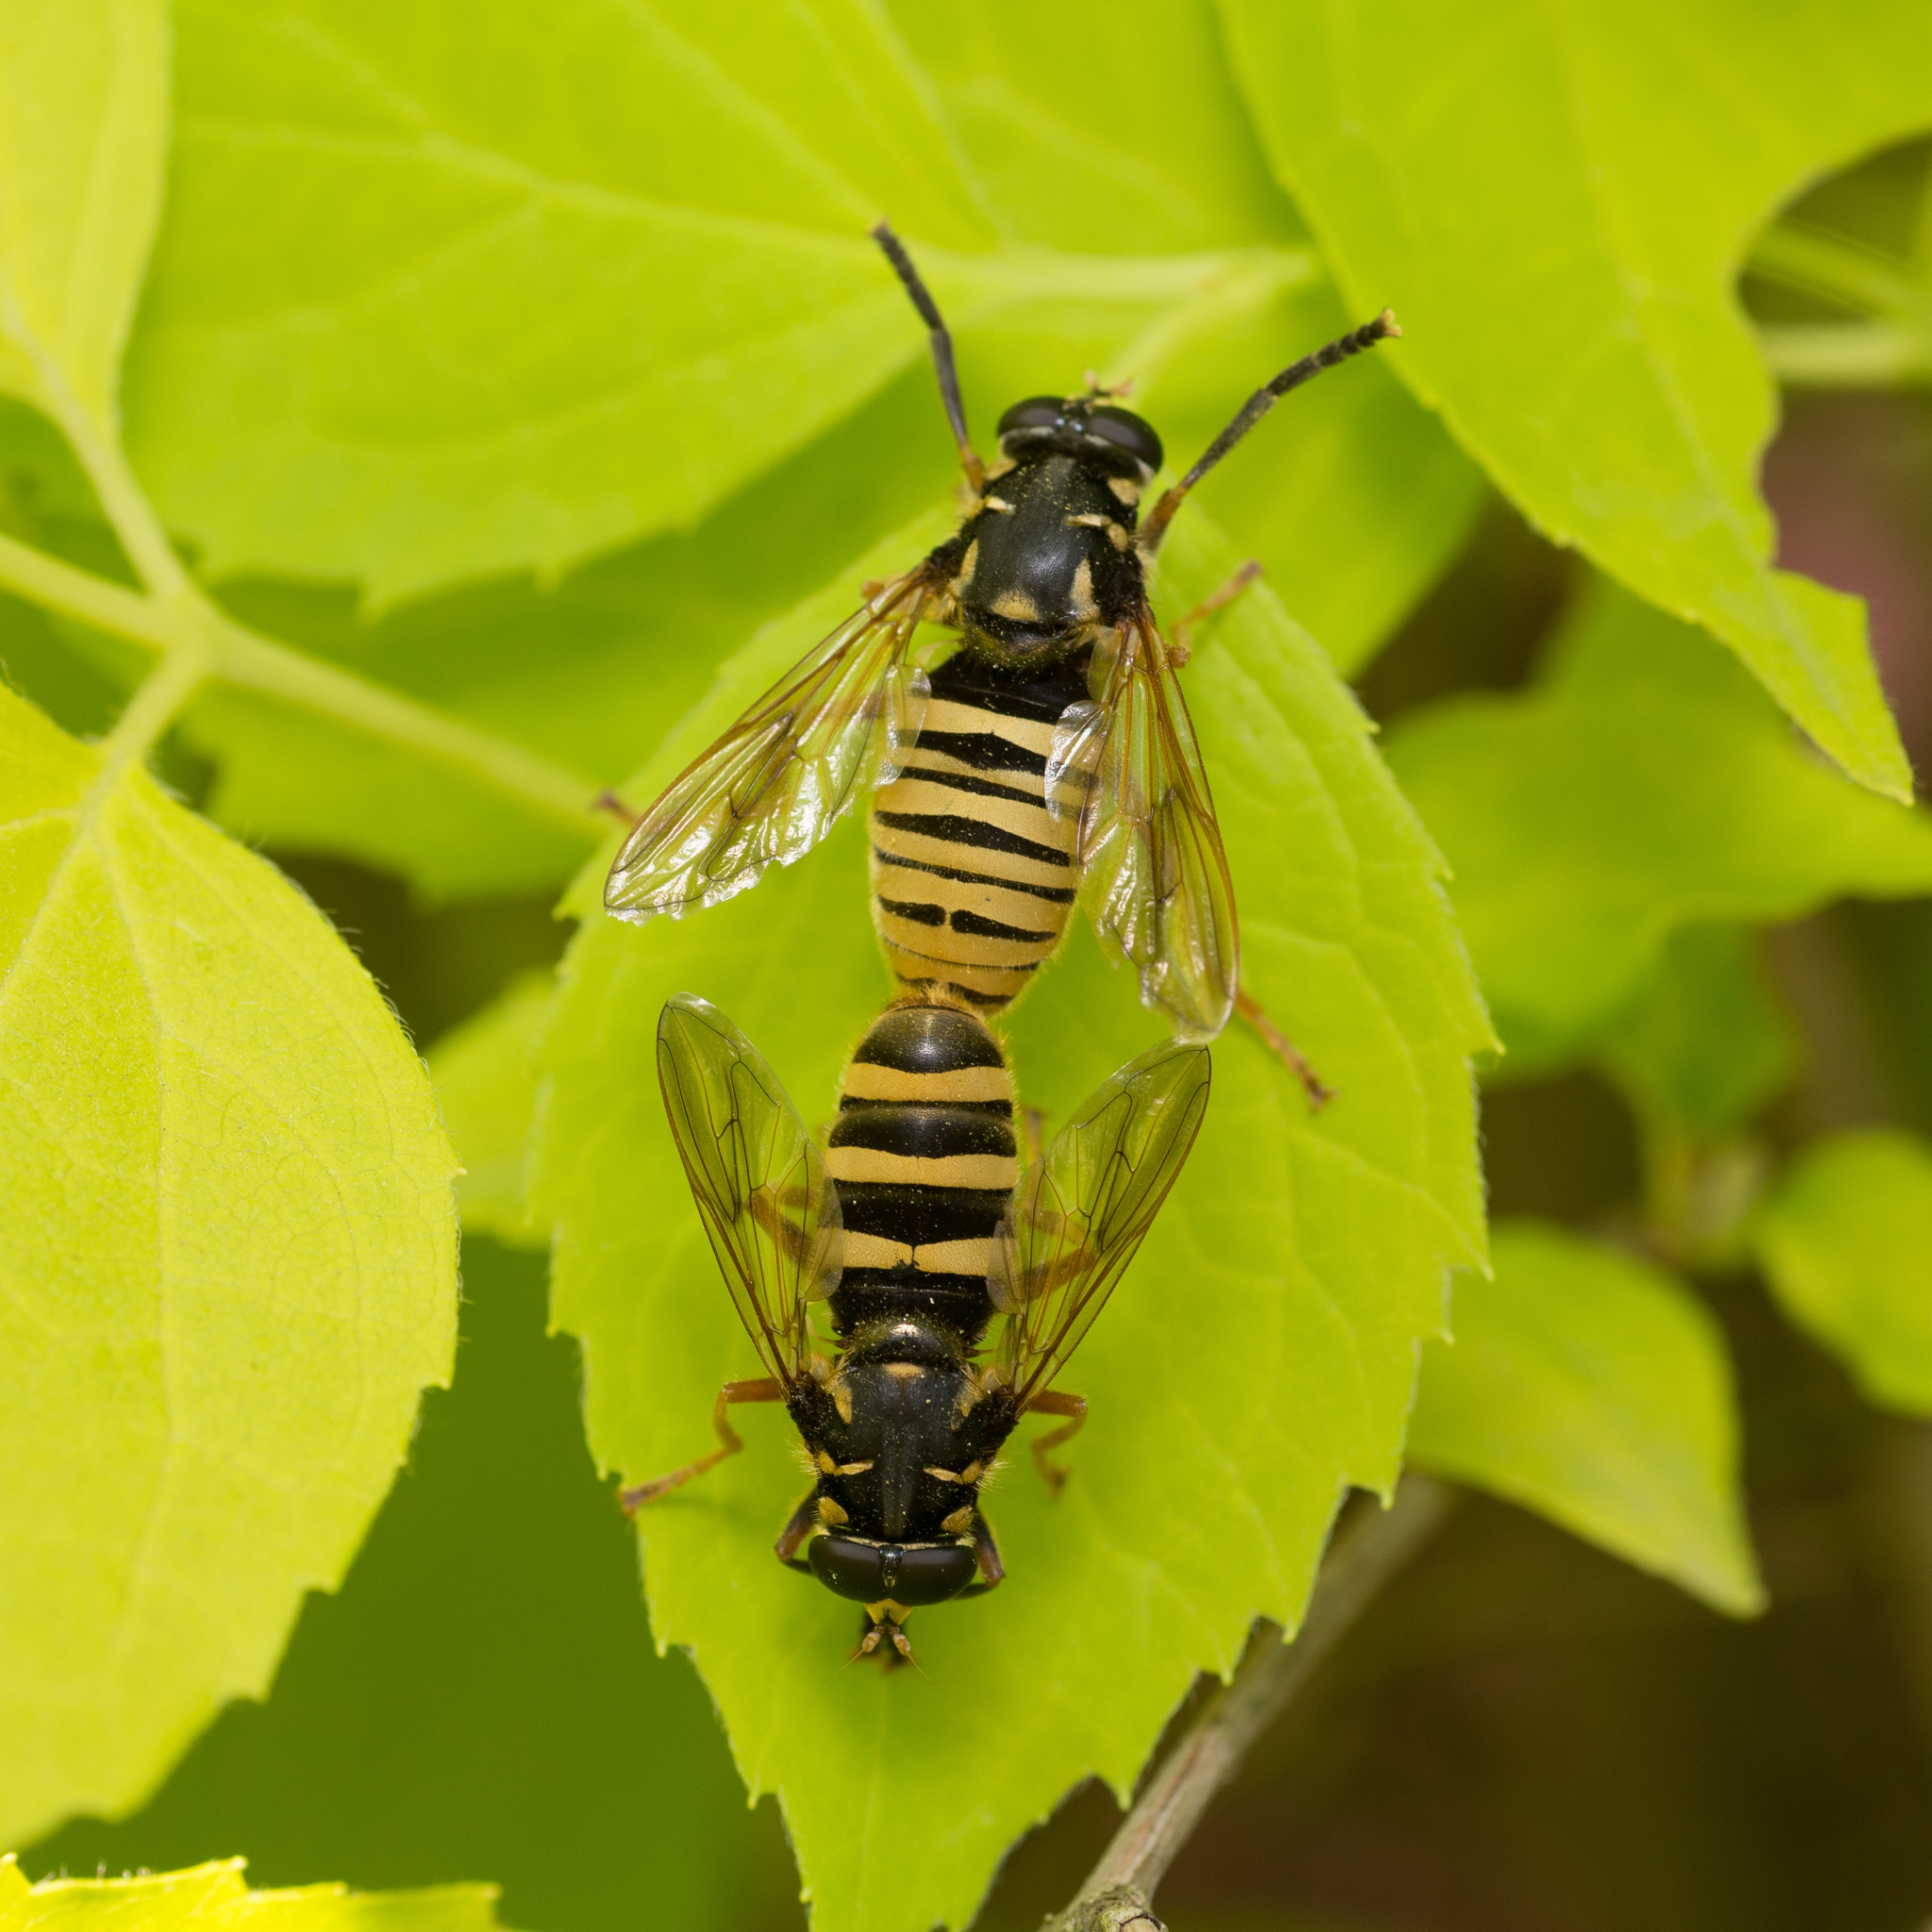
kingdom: Animalia
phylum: Arthropoda
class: Insecta
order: Diptera
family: Syrphidae
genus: Temnostoma
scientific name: Temnostoma vespiforme
